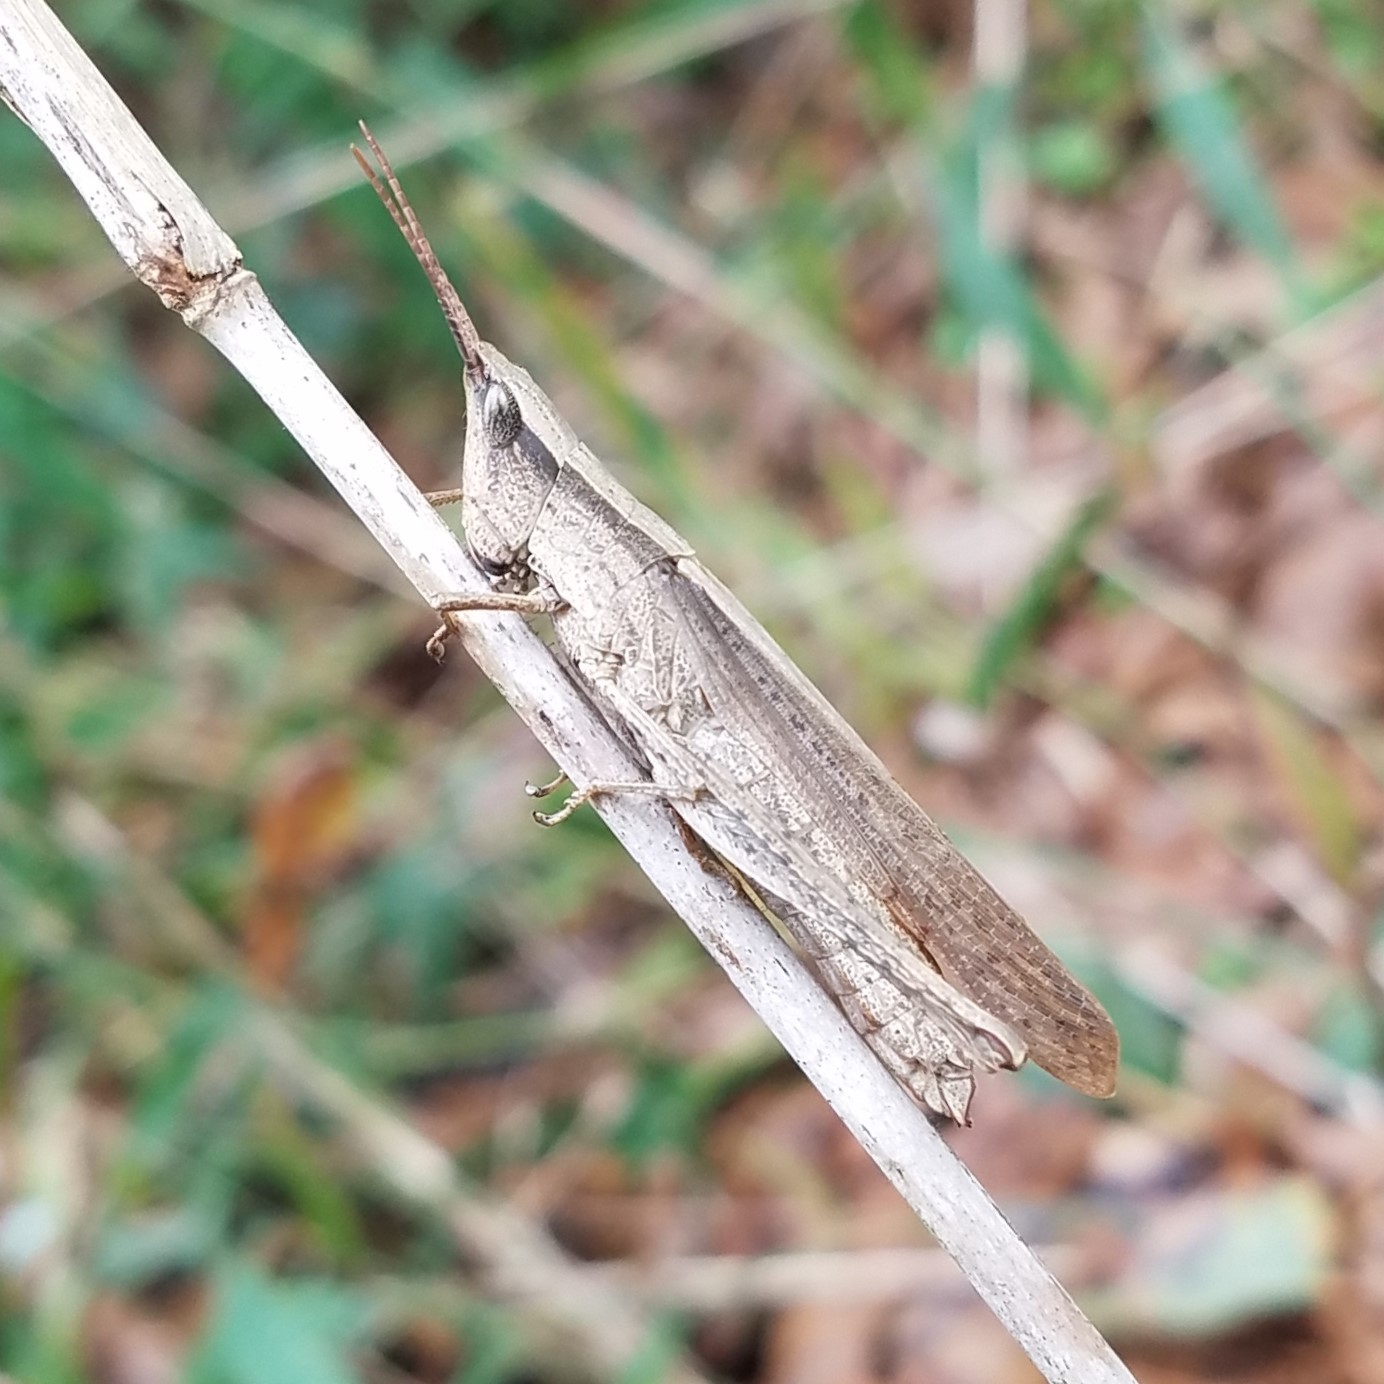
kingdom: Animalia
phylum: Arthropoda
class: Insecta
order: Orthoptera
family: Acrididae
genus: Metaleptea
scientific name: Metaleptea brevicornis
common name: Clipped-wing grasshopper
